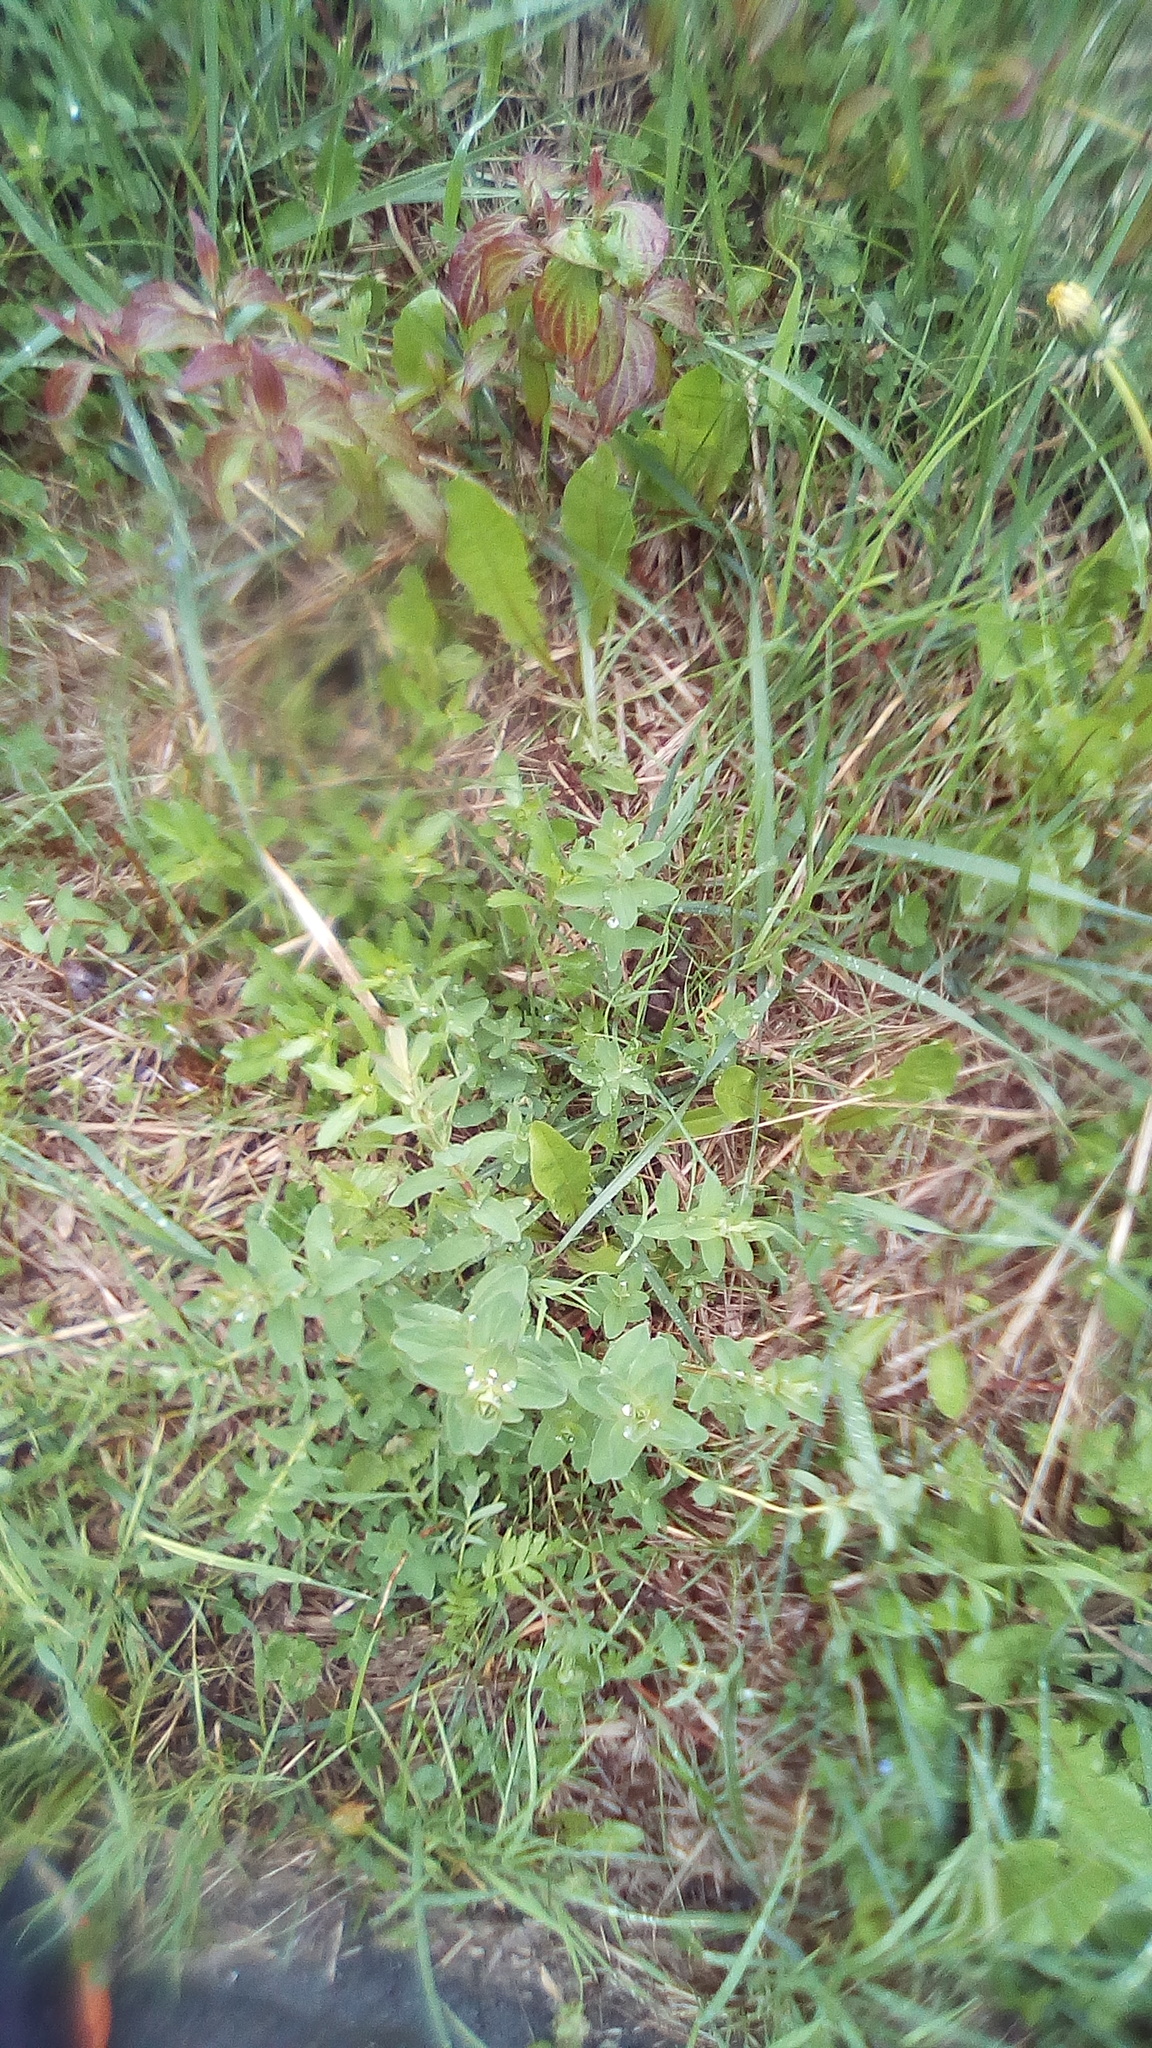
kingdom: Plantae
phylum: Tracheophyta
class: Magnoliopsida
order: Malpighiales
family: Hypericaceae
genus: Hypericum
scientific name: Hypericum perforatum
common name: Common st. johnswort
